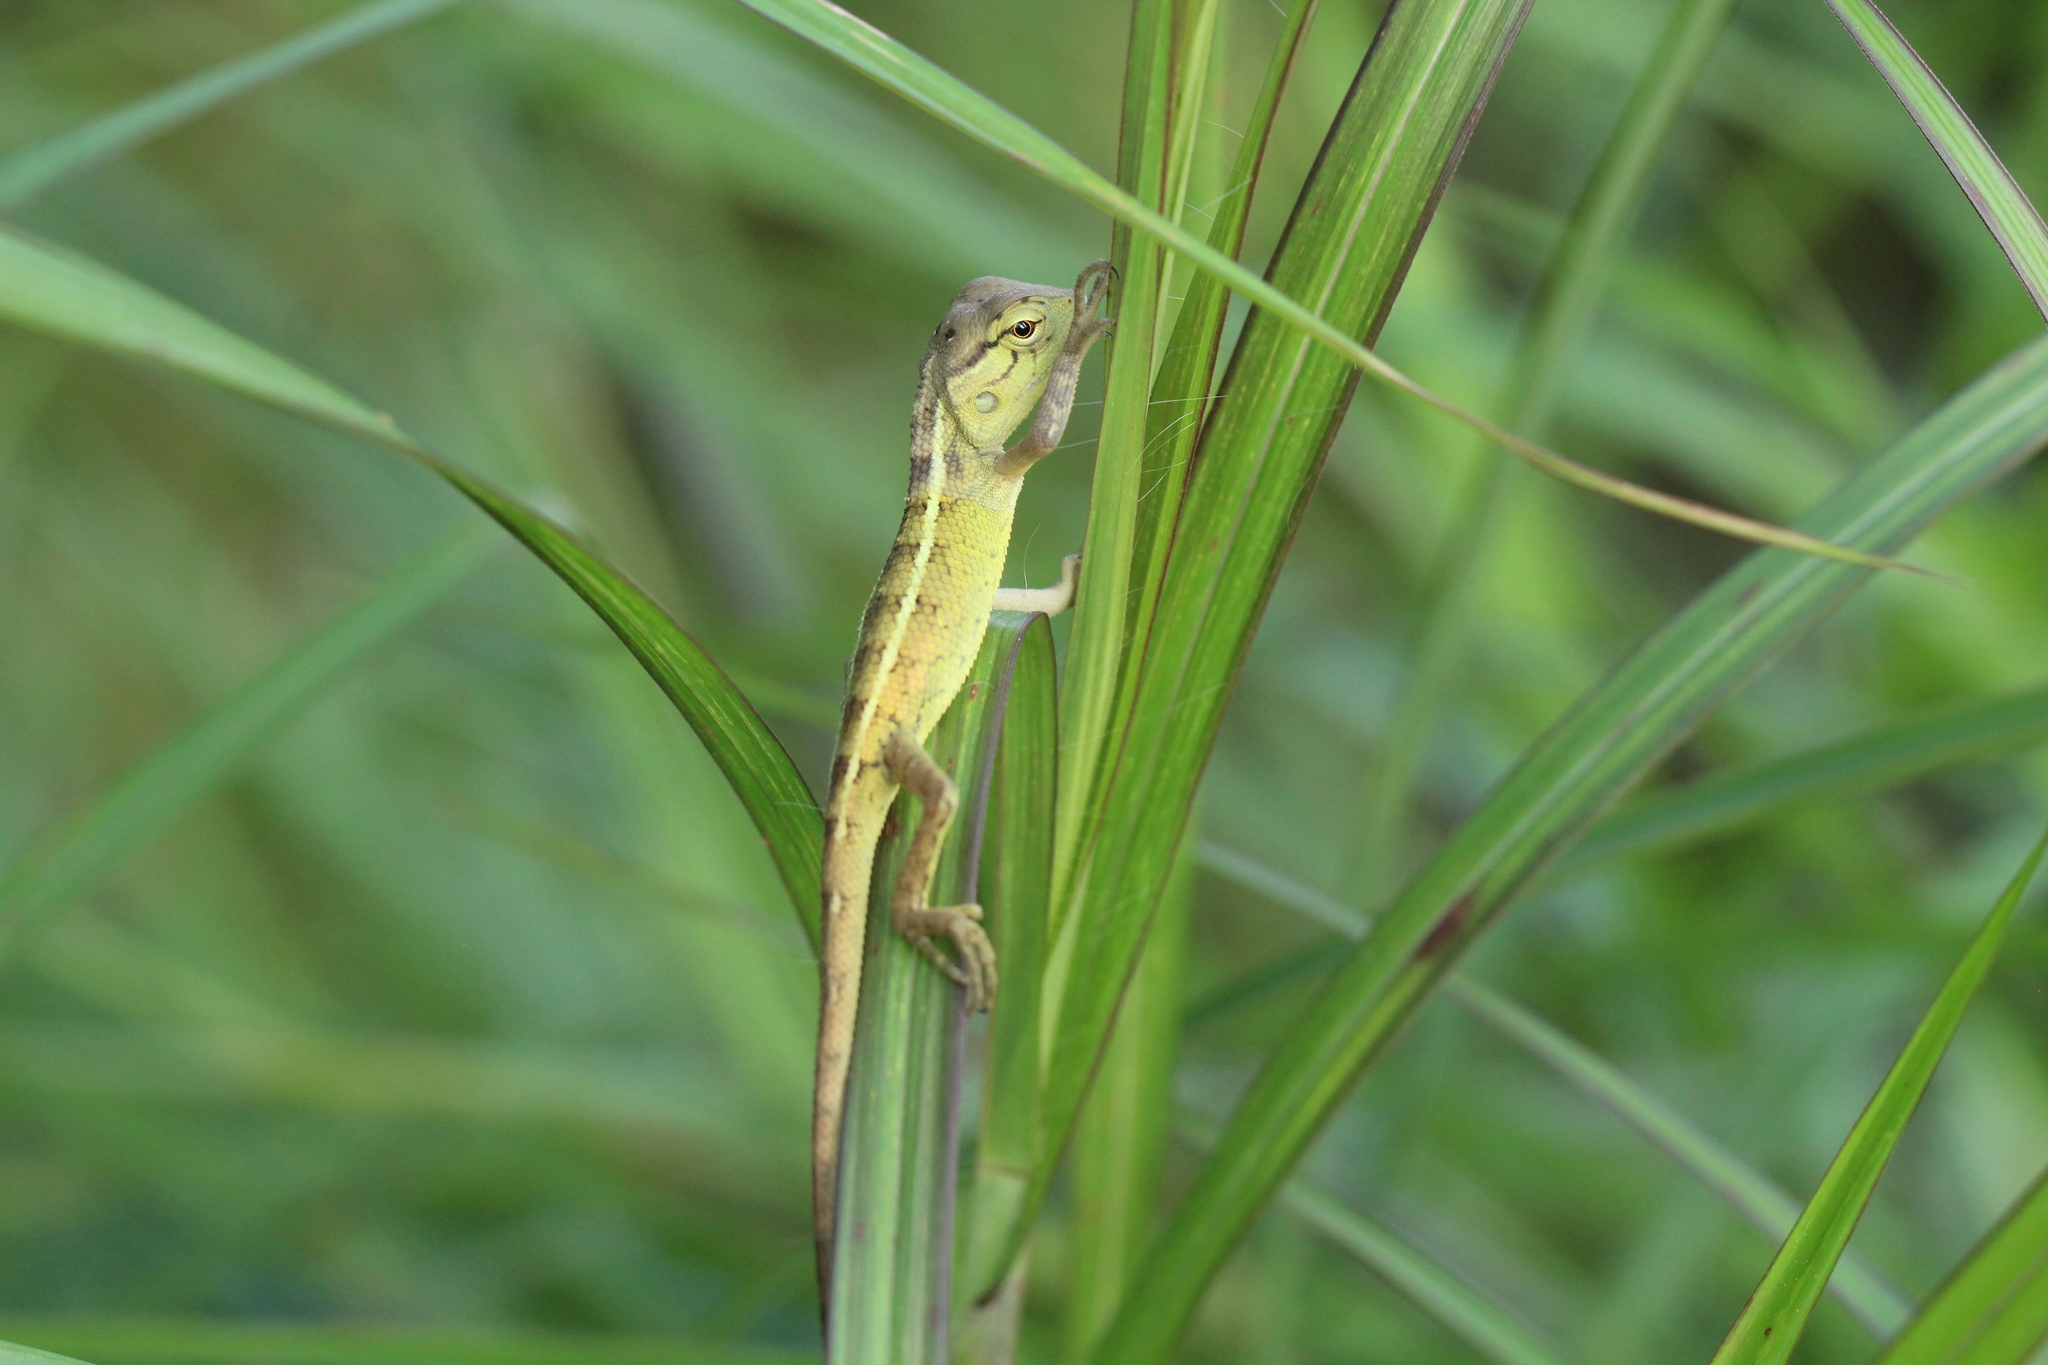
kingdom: Animalia
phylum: Chordata
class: Squamata
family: Agamidae
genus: Calotes
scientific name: Calotes versicolor
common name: Oriental garden lizard
